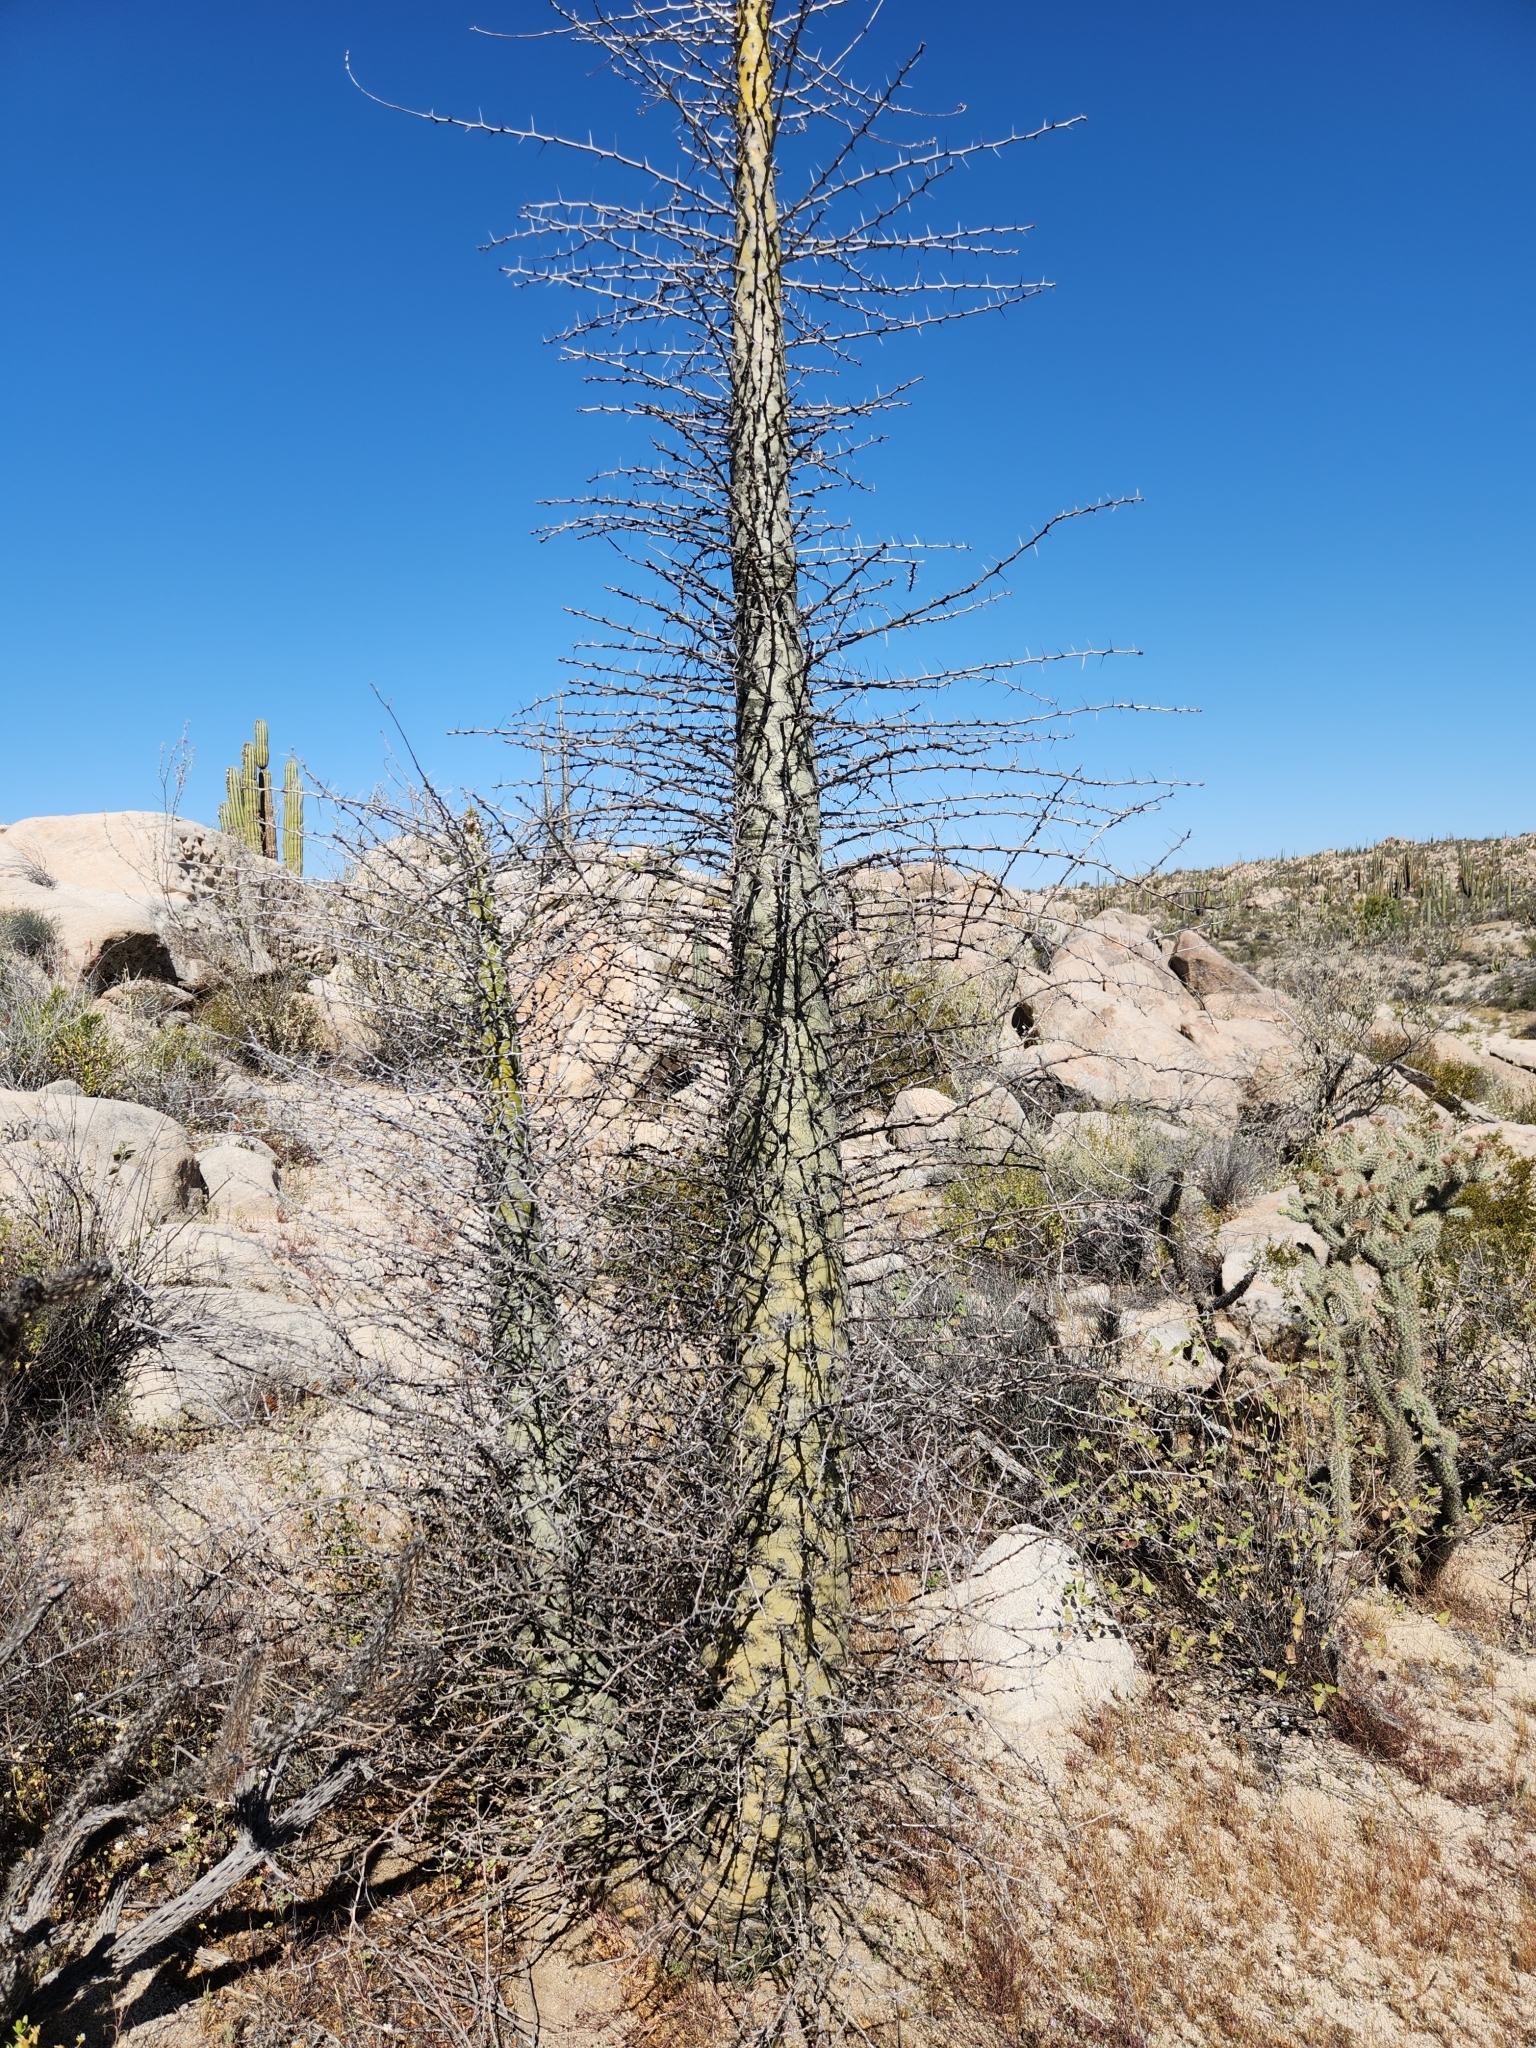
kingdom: Plantae
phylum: Tracheophyta
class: Magnoliopsida
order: Ericales
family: Fouquieriaceae
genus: Fouquieria
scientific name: Fouquieria columnaris
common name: Boojumtree
